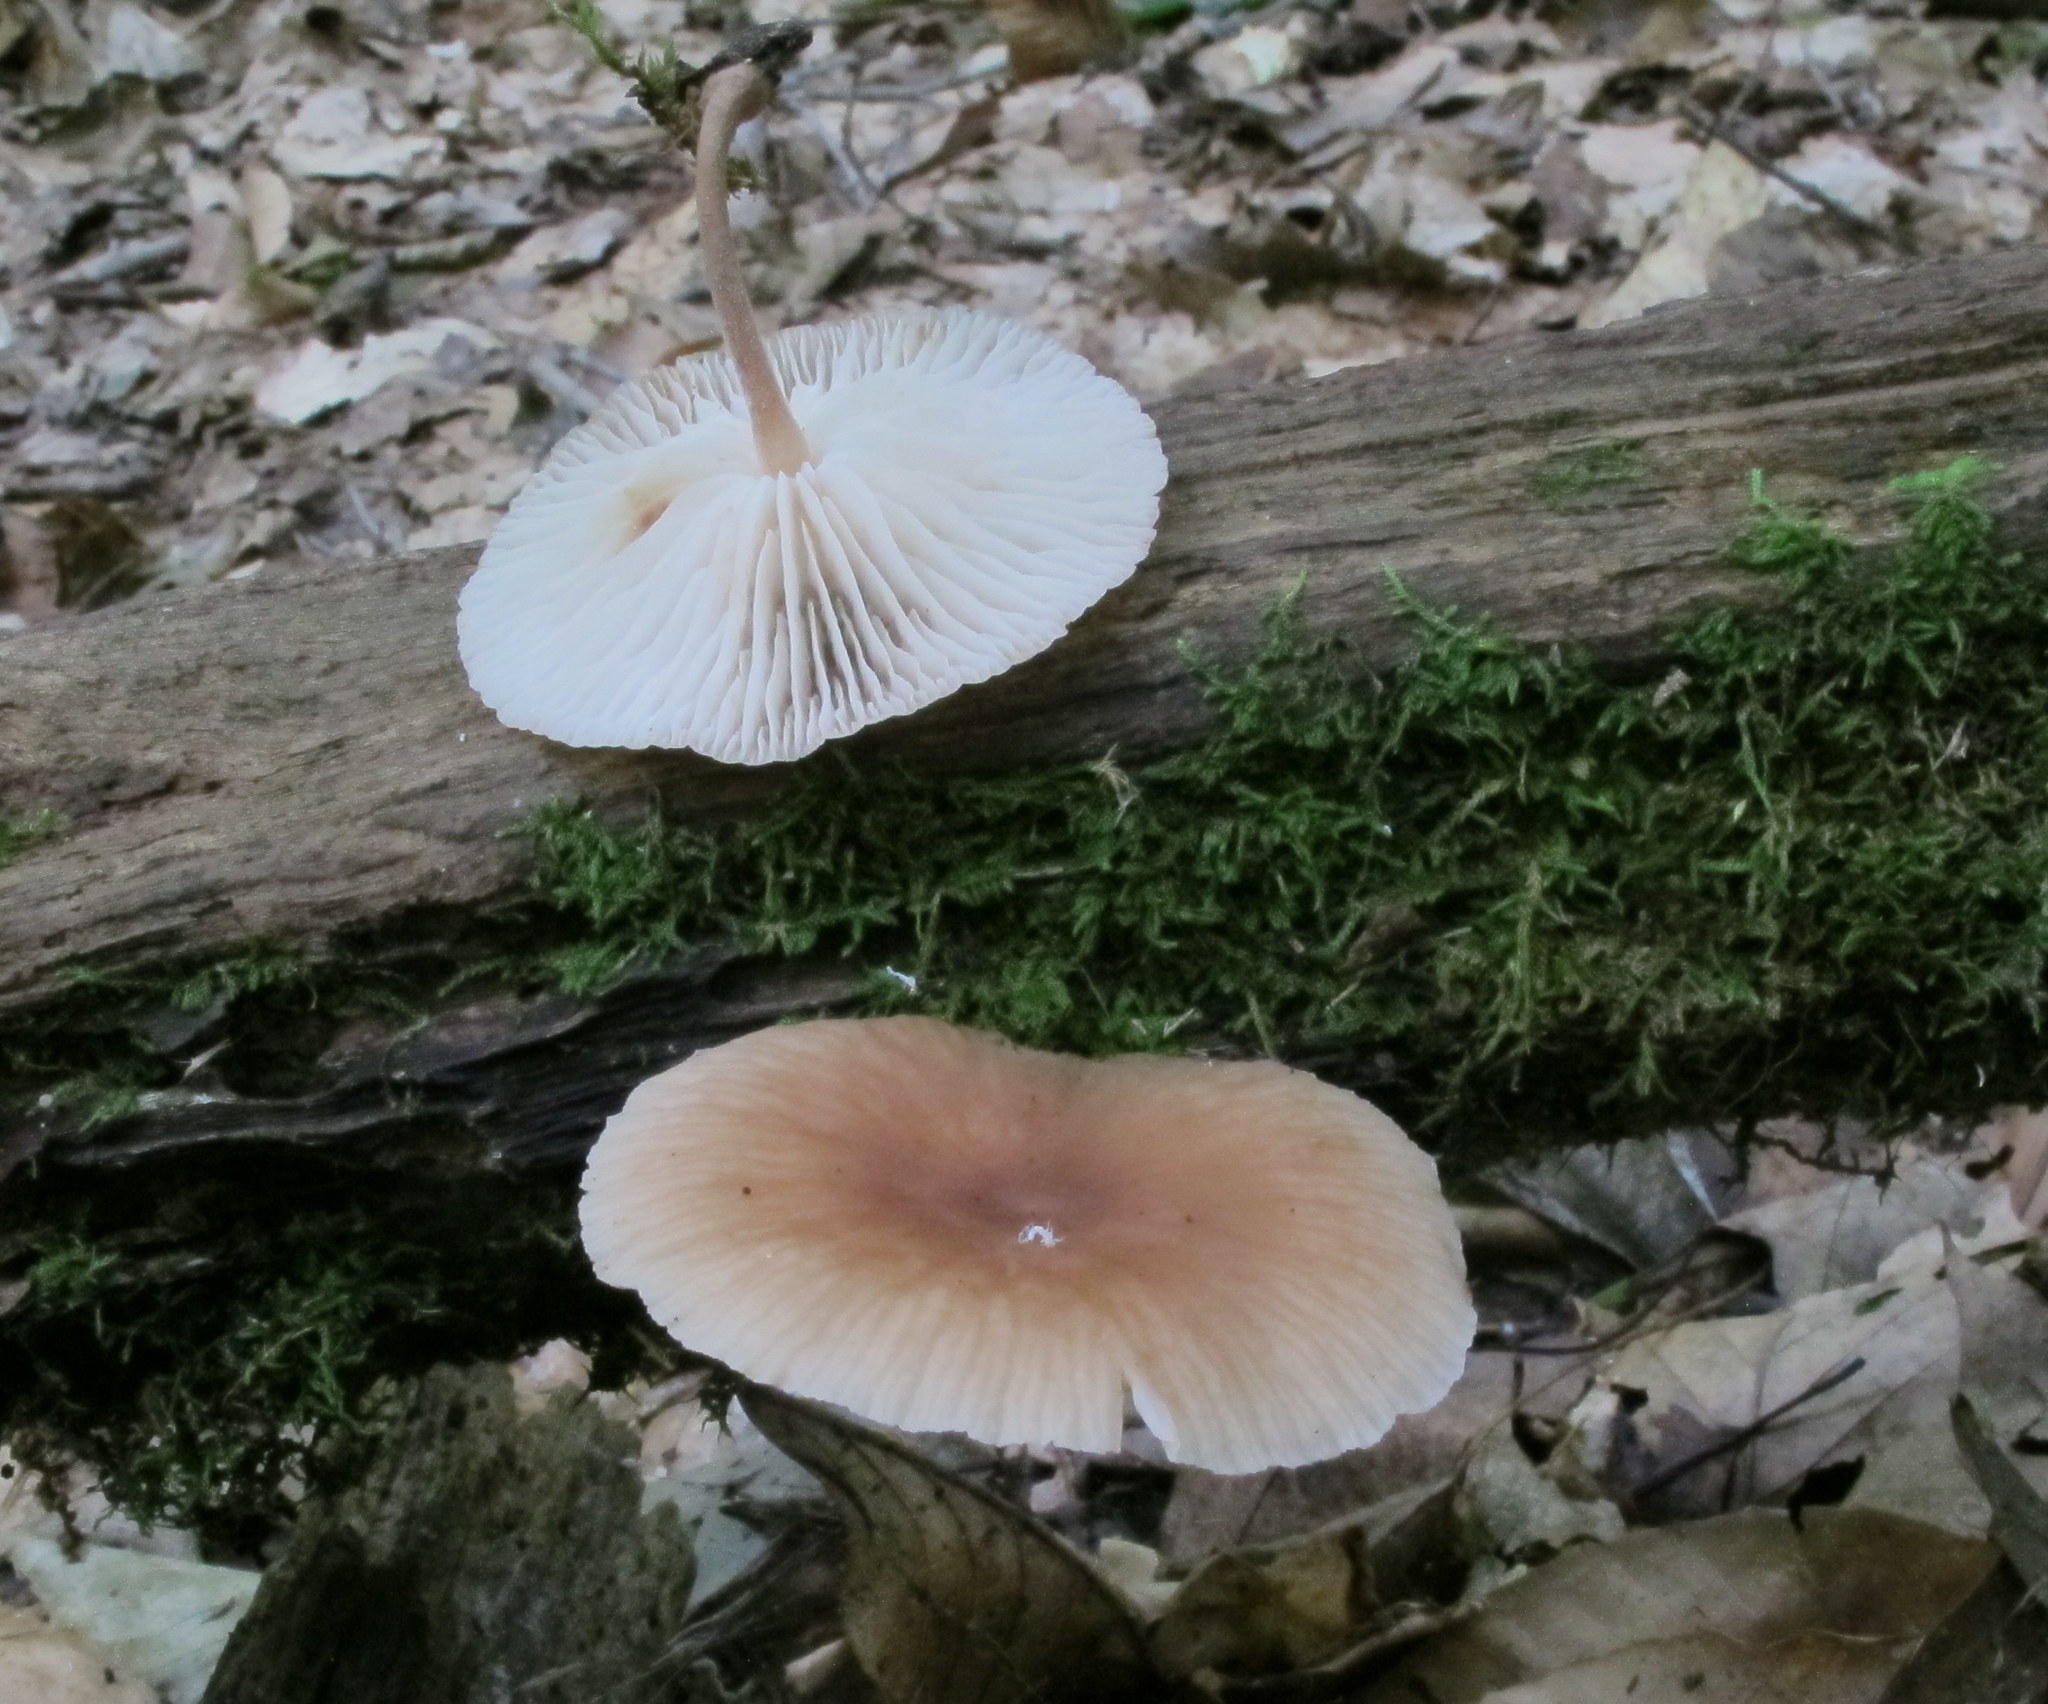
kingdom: Fungi
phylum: Basidiomycota
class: Agaricomycetes
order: Agaricales
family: Omphalotaceae
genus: Collybiopsis
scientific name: Collybiopsis dichroa
